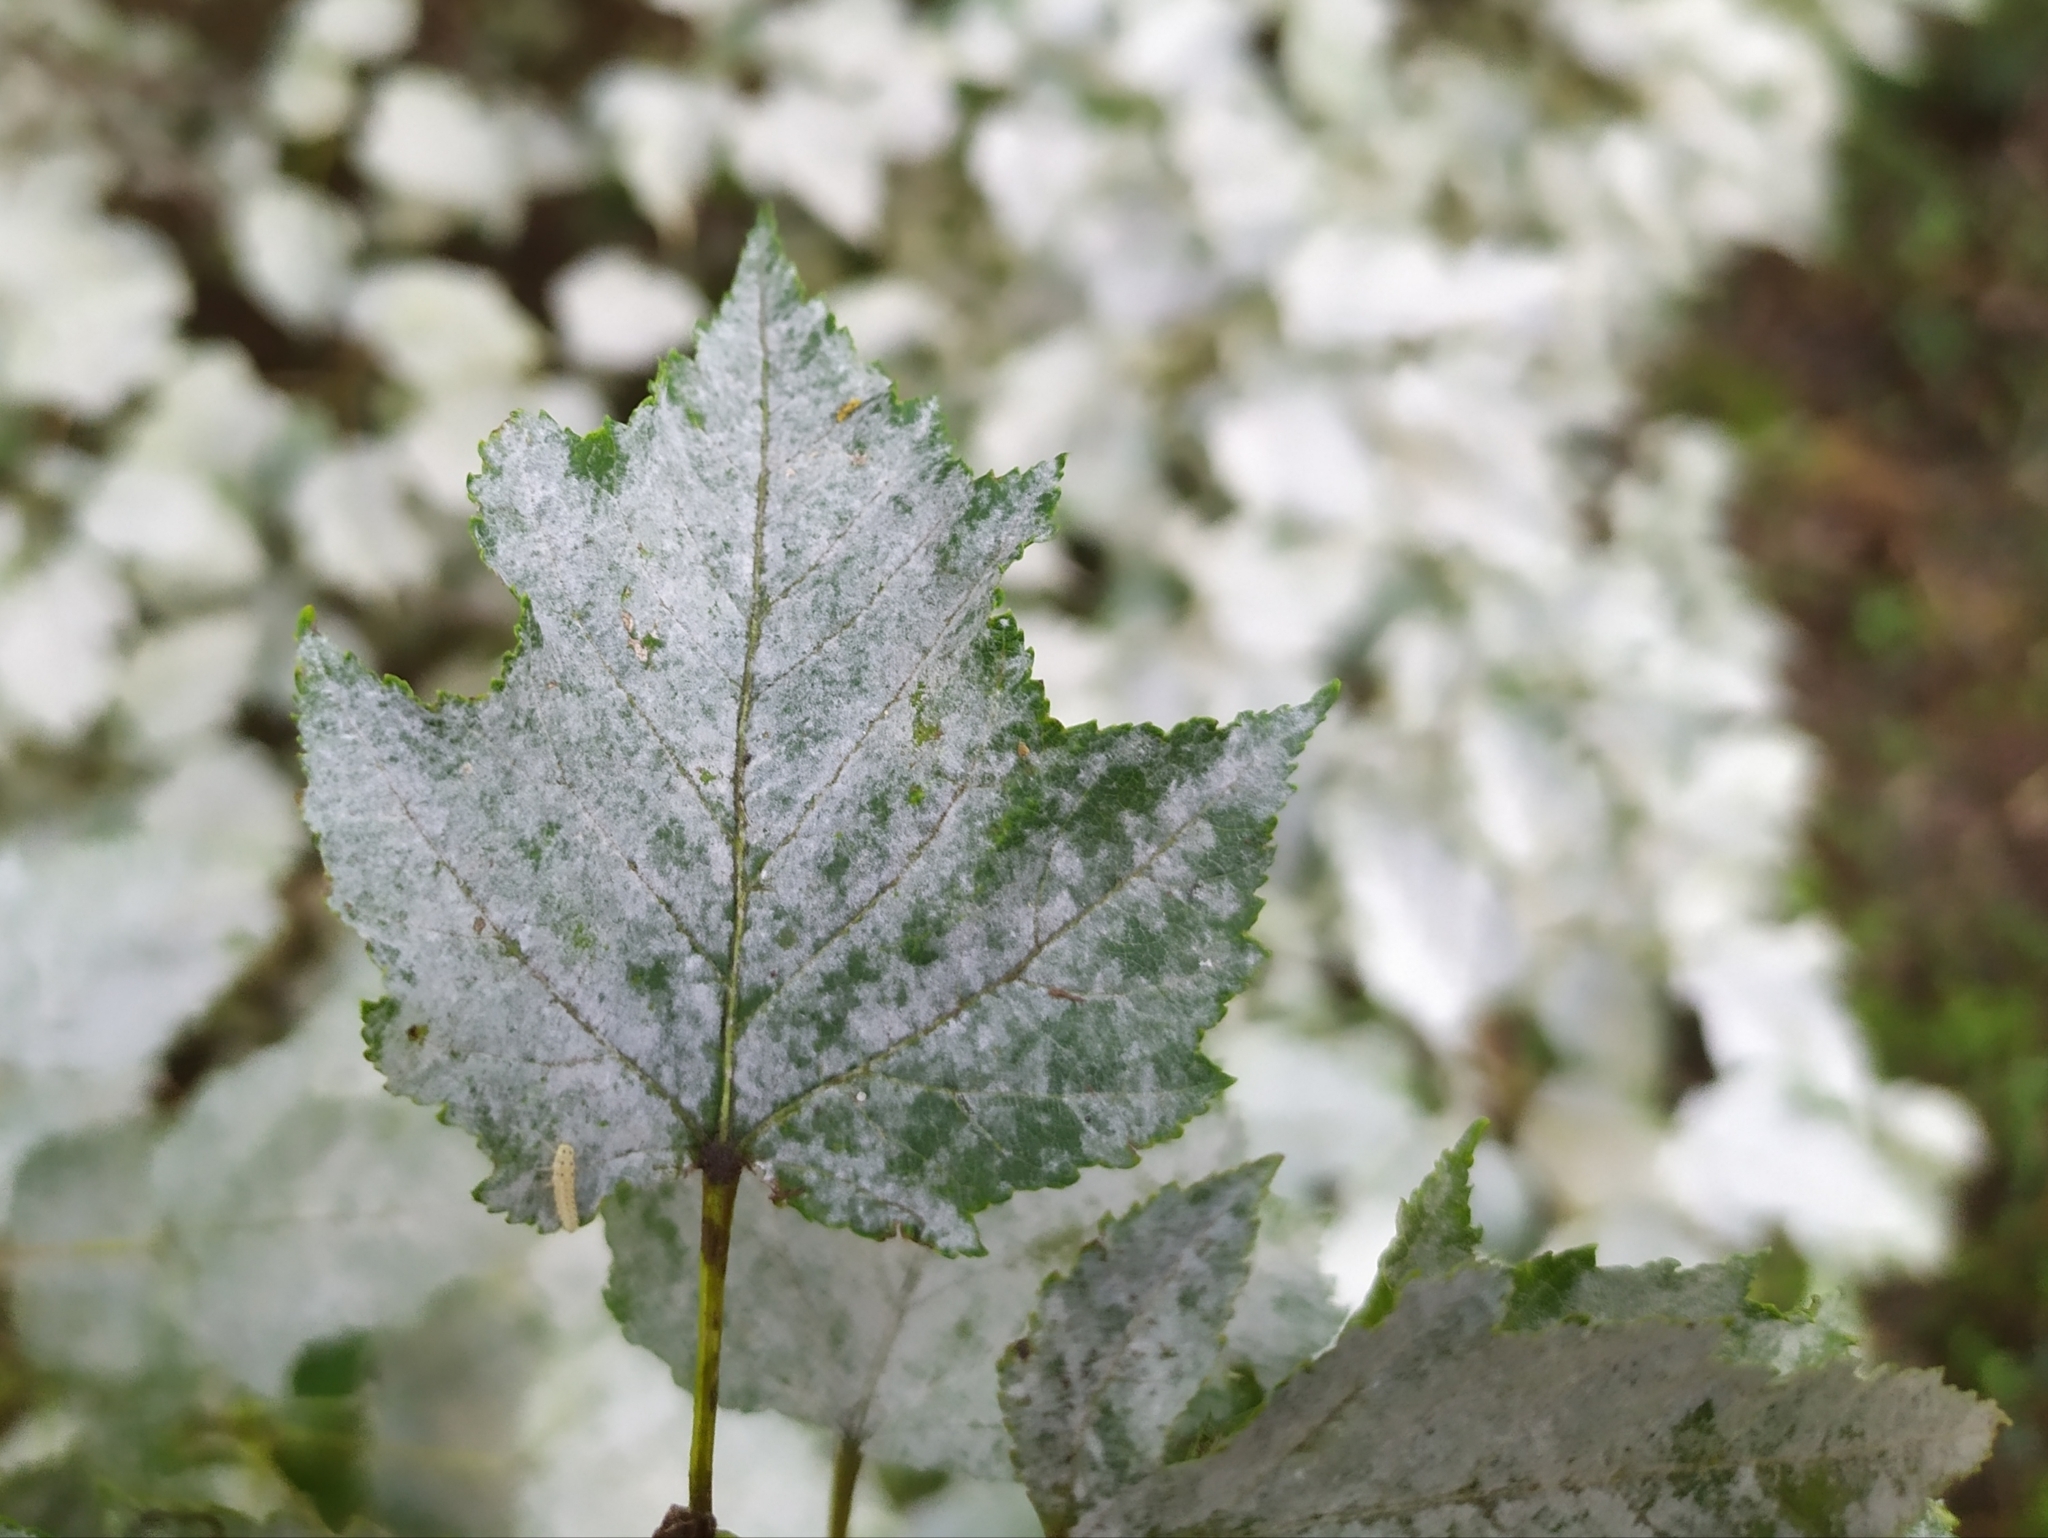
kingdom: Fungi
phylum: Ascomycota
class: Leotiomycetes
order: Helotiales
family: Erysiphaceae
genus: Sawadaea
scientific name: Sawadaea tulasnei
